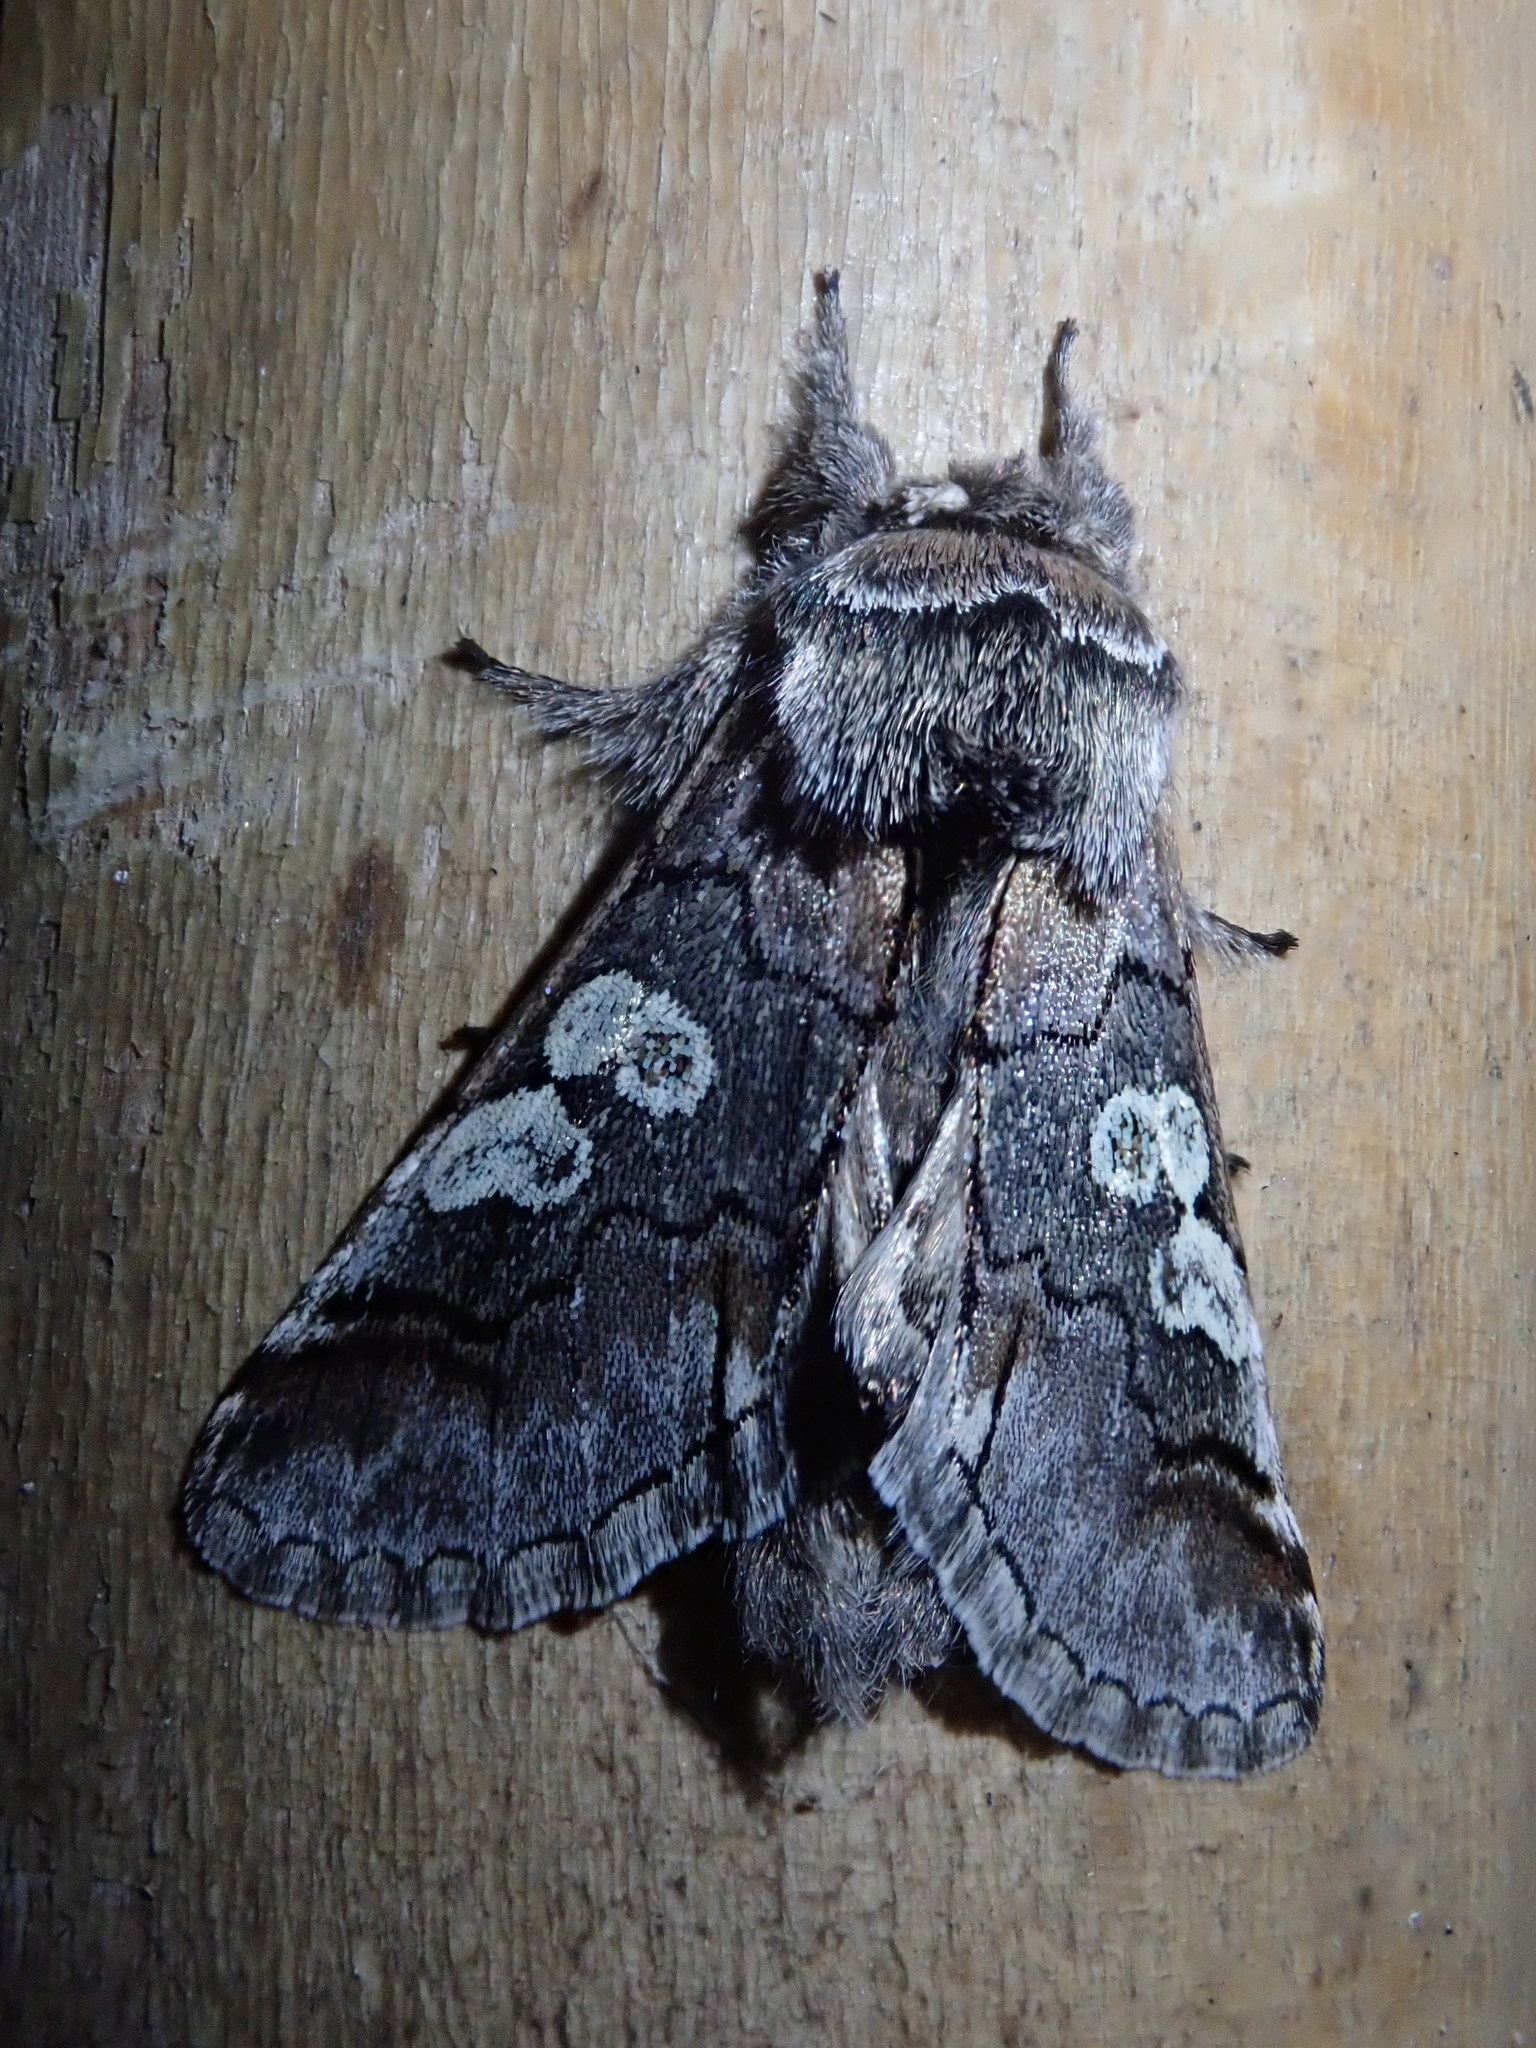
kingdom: Animalia
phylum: Arthropoda
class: Insecta
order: Lepidoptera
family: Noctuidae
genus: Diloba
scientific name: Diloba caeruleocephala
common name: Figure of eight
